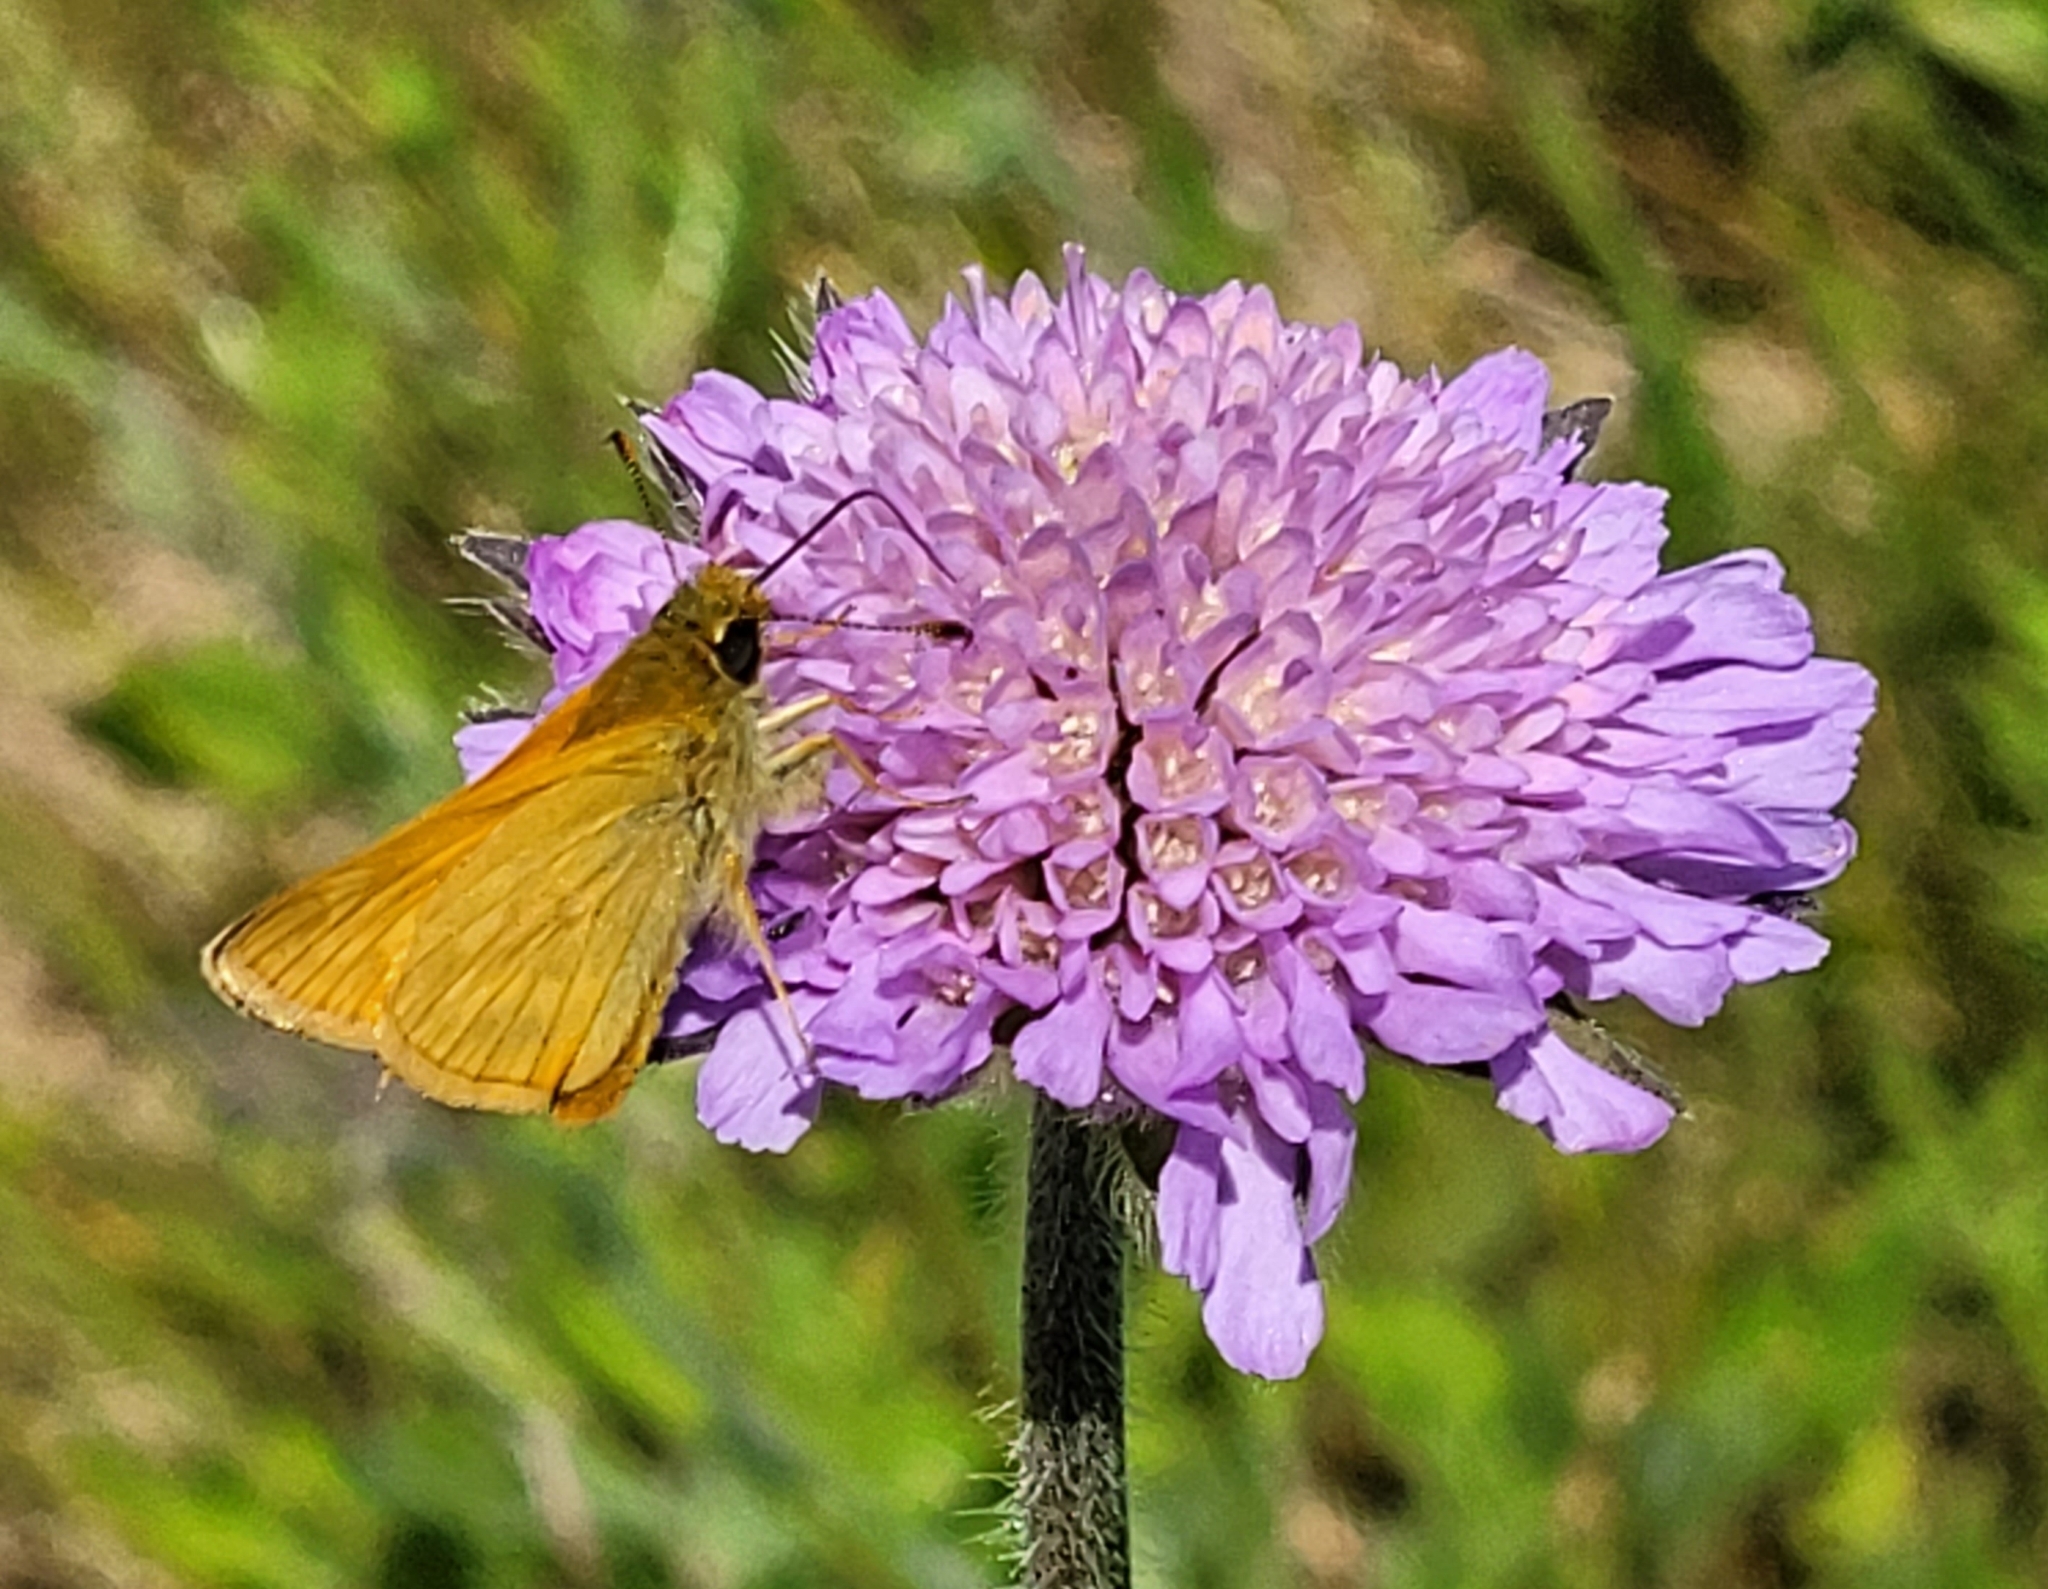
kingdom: Animalia
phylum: Arthropoda
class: Insecta
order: Lepidoptera
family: Hesperiidae
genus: Ochlodes
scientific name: Ochlodes venata
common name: Large skipper
